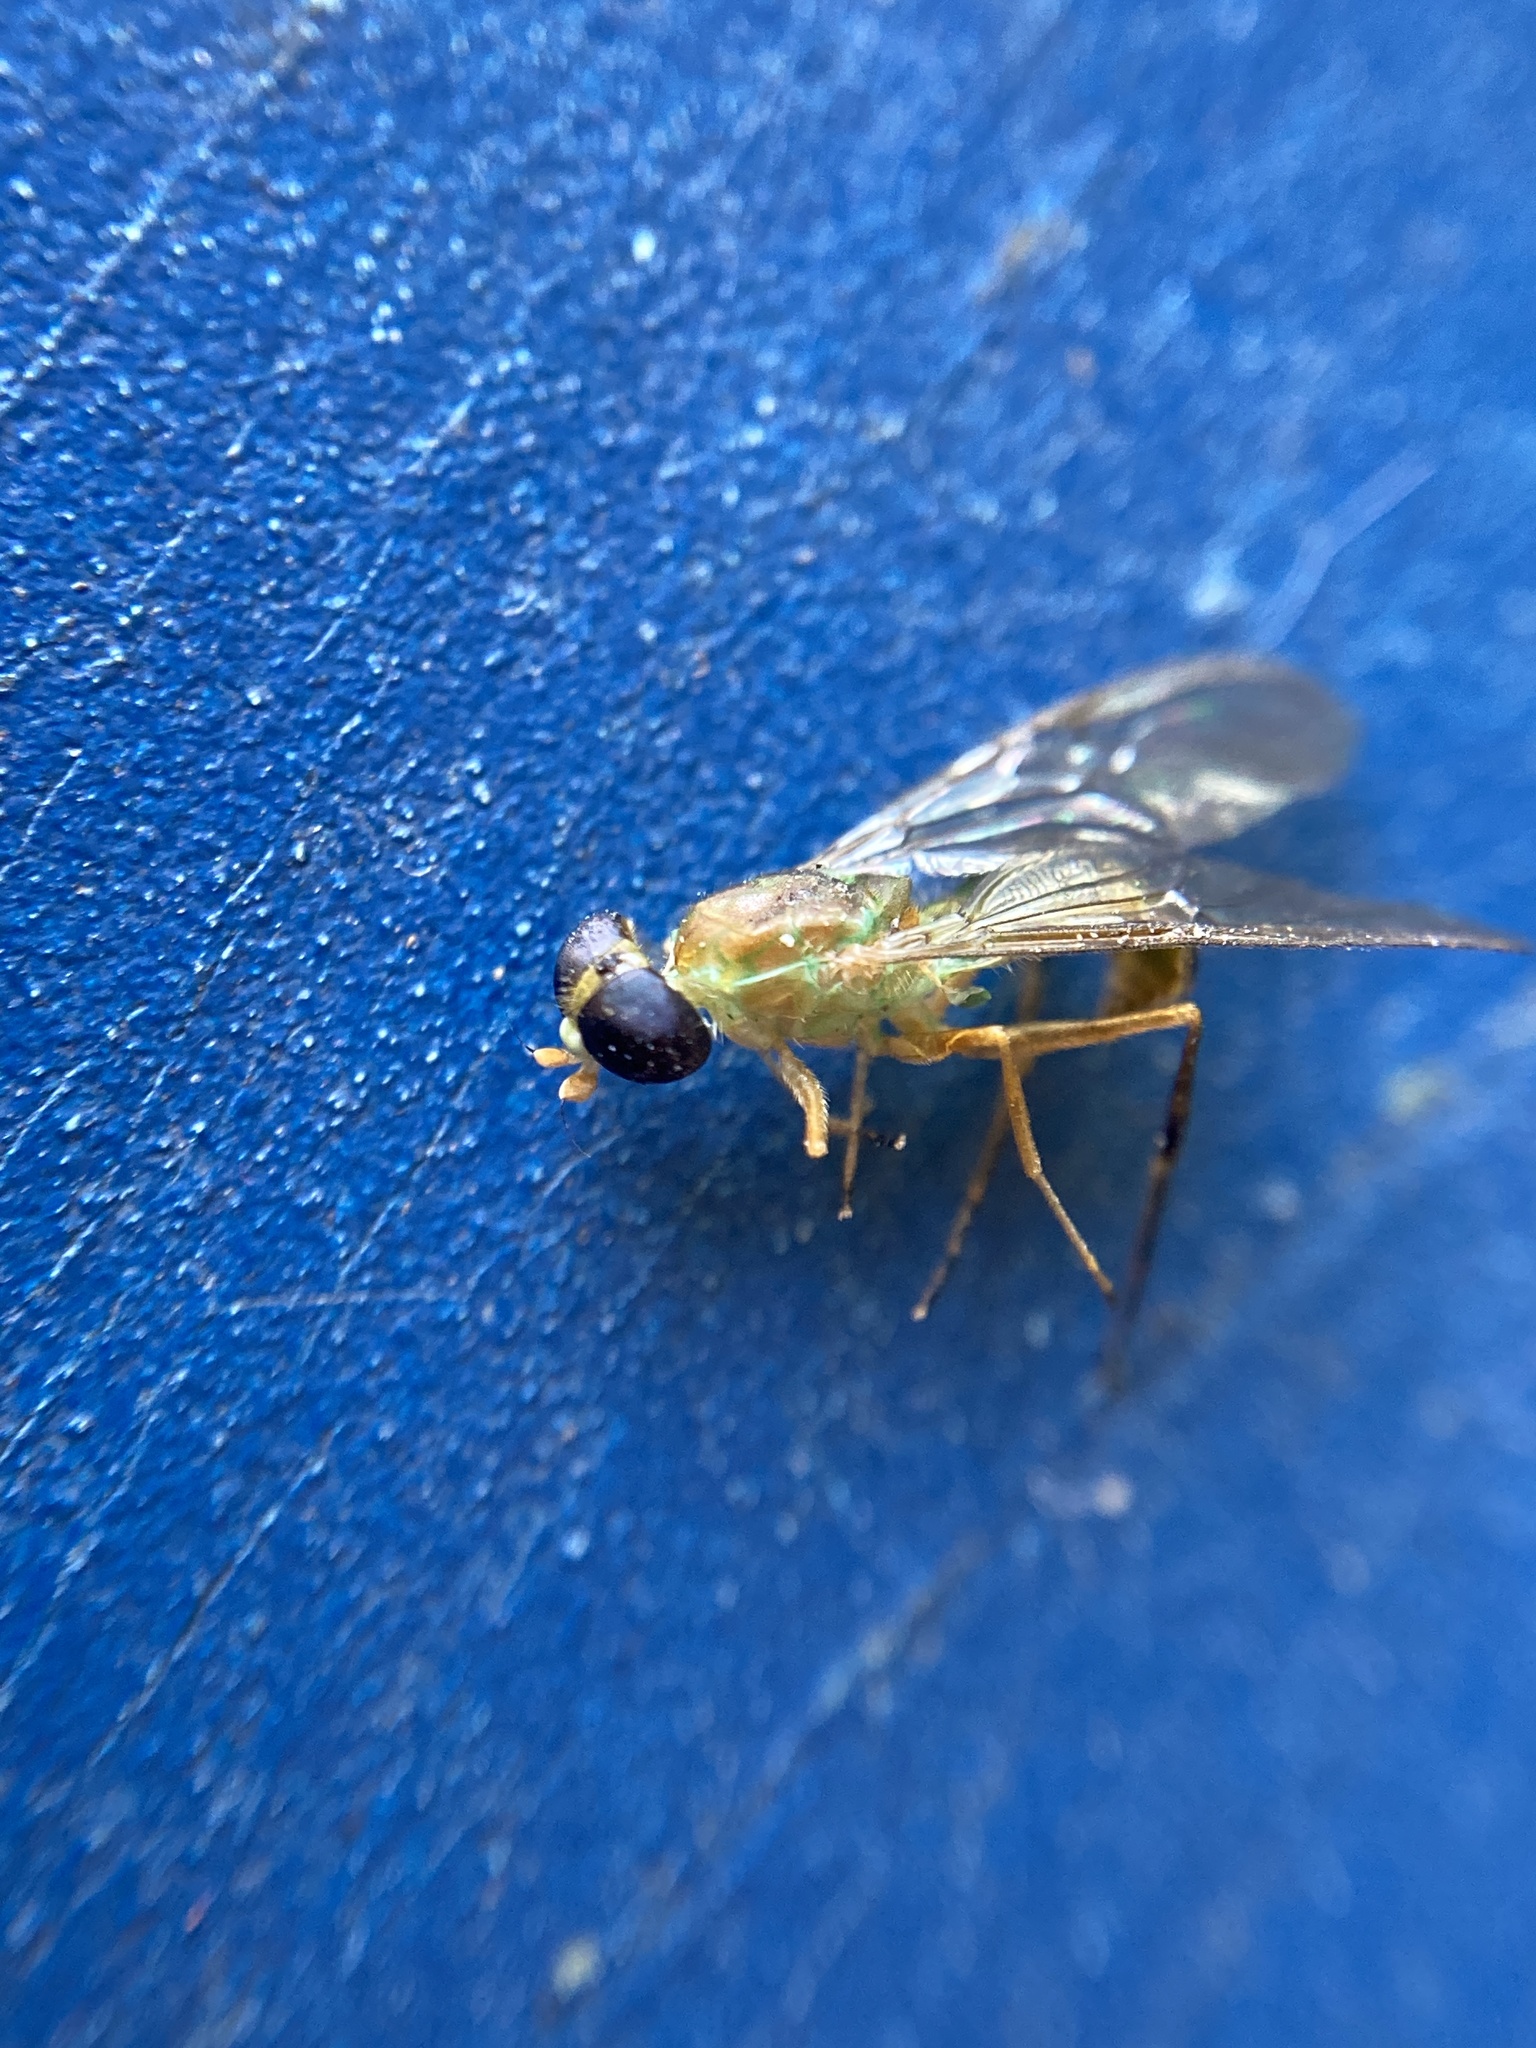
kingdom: Animalia
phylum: Arthropoda
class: Insecta
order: Diptera
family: Stratiomyidae
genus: Ptecticus
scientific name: Ptecticus trivittatus
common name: Compost fly
